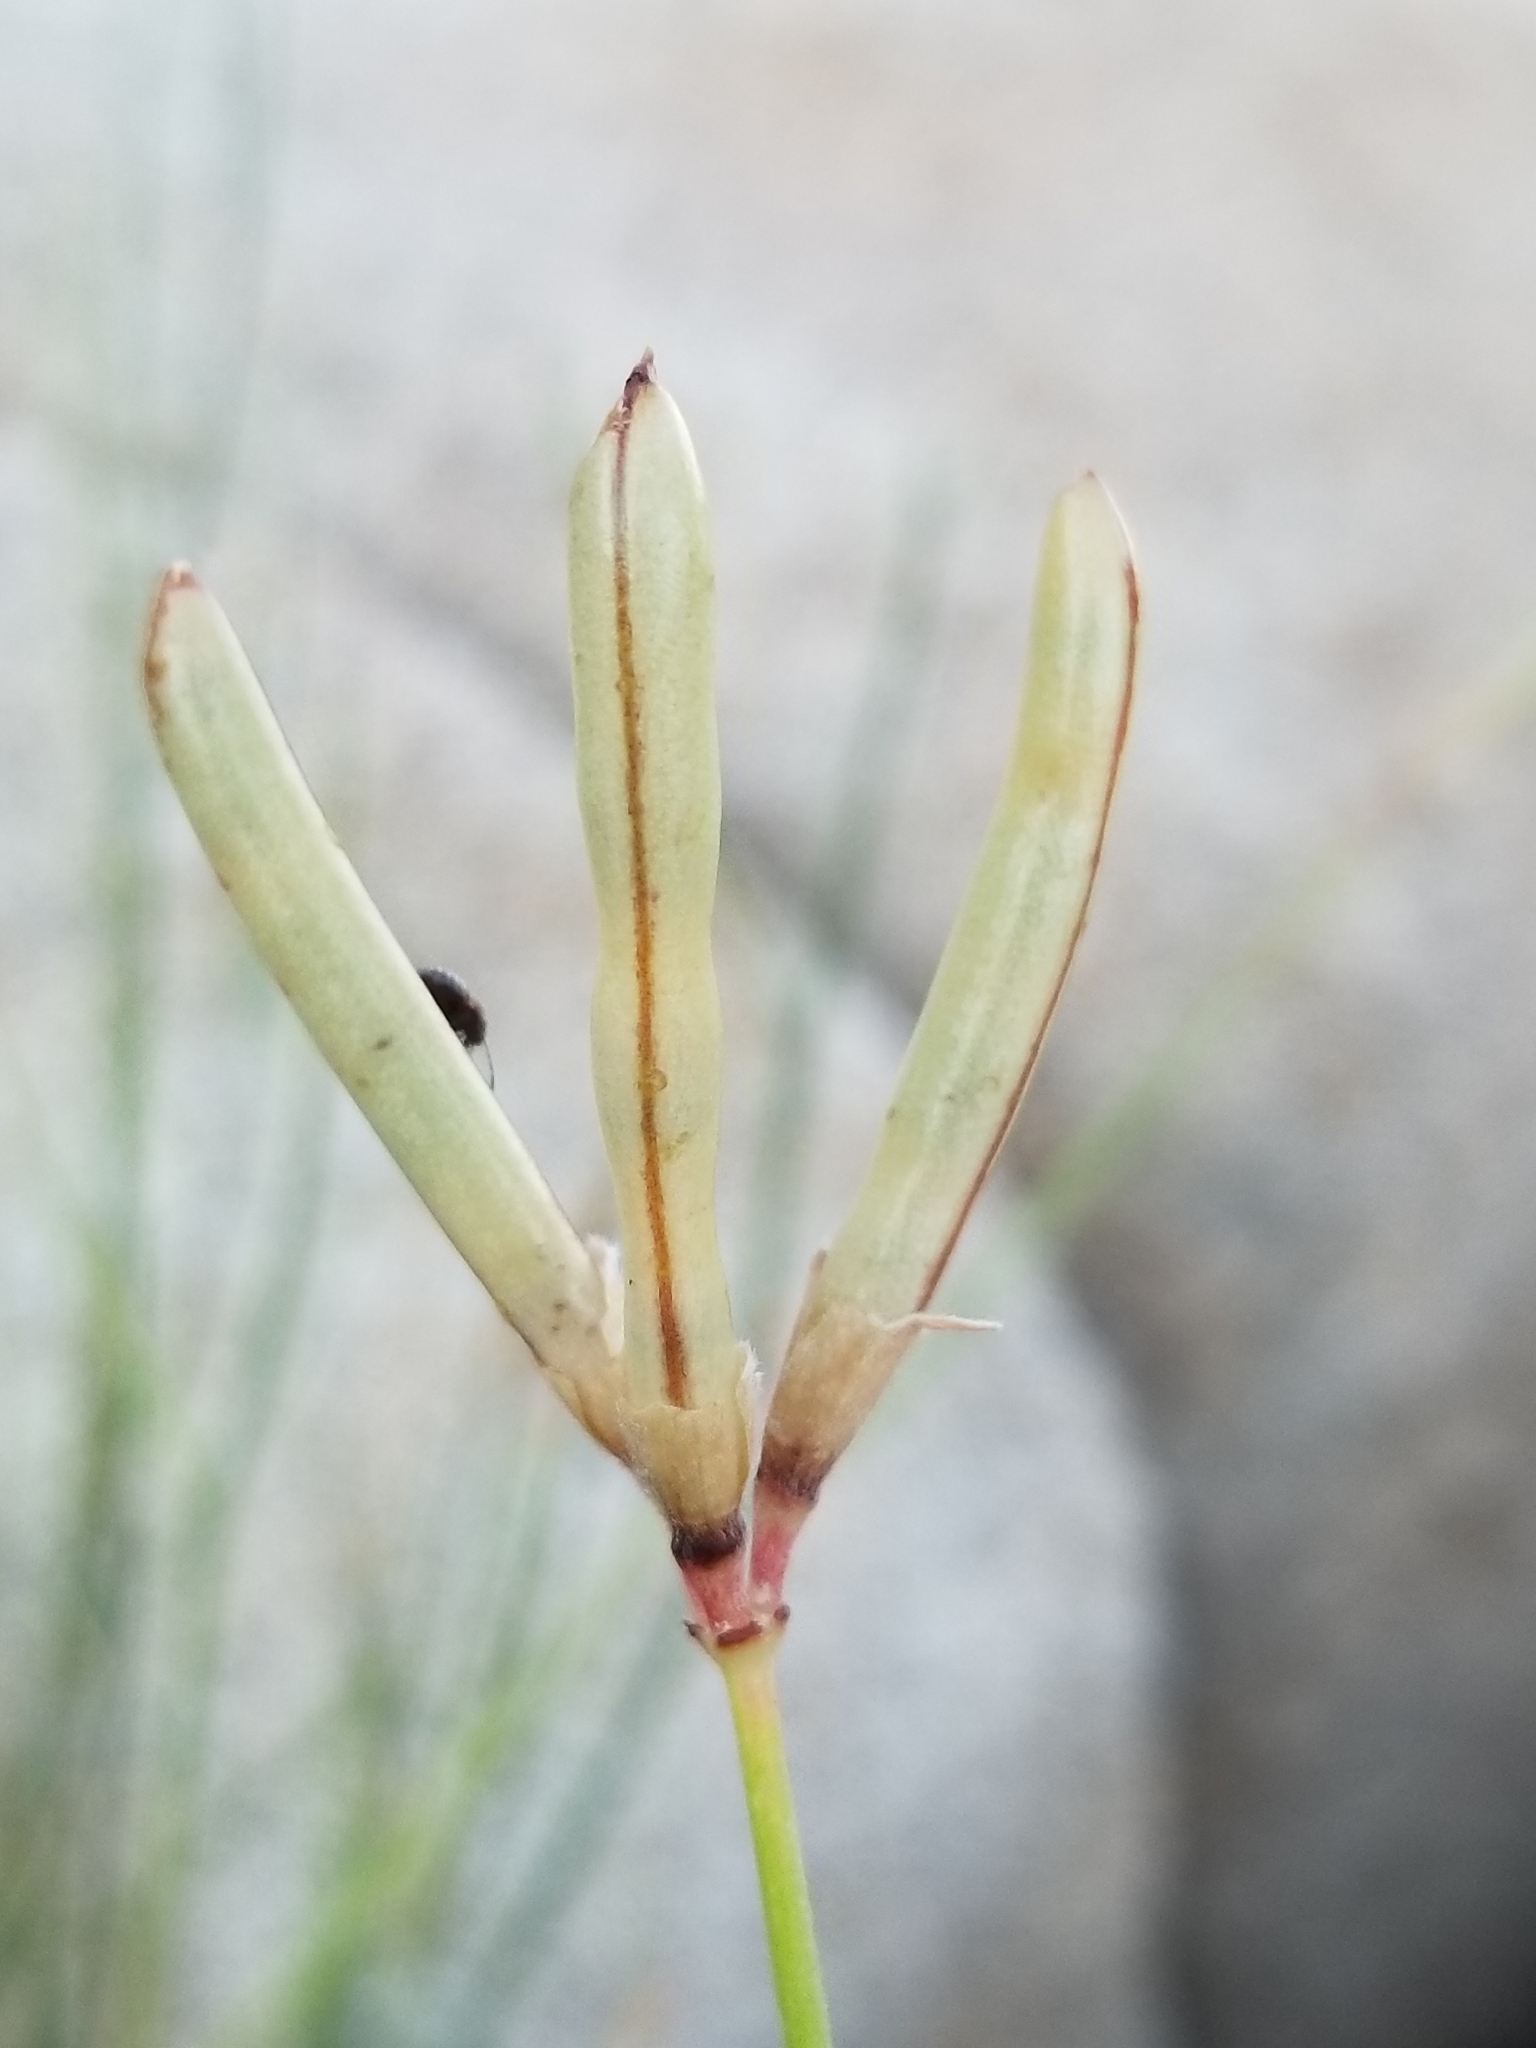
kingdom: Plantae
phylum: Tracheophyta
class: Magnoliopsida
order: Fabales
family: Fabaceae
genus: Acmispon
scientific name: Acmispon rigidus
